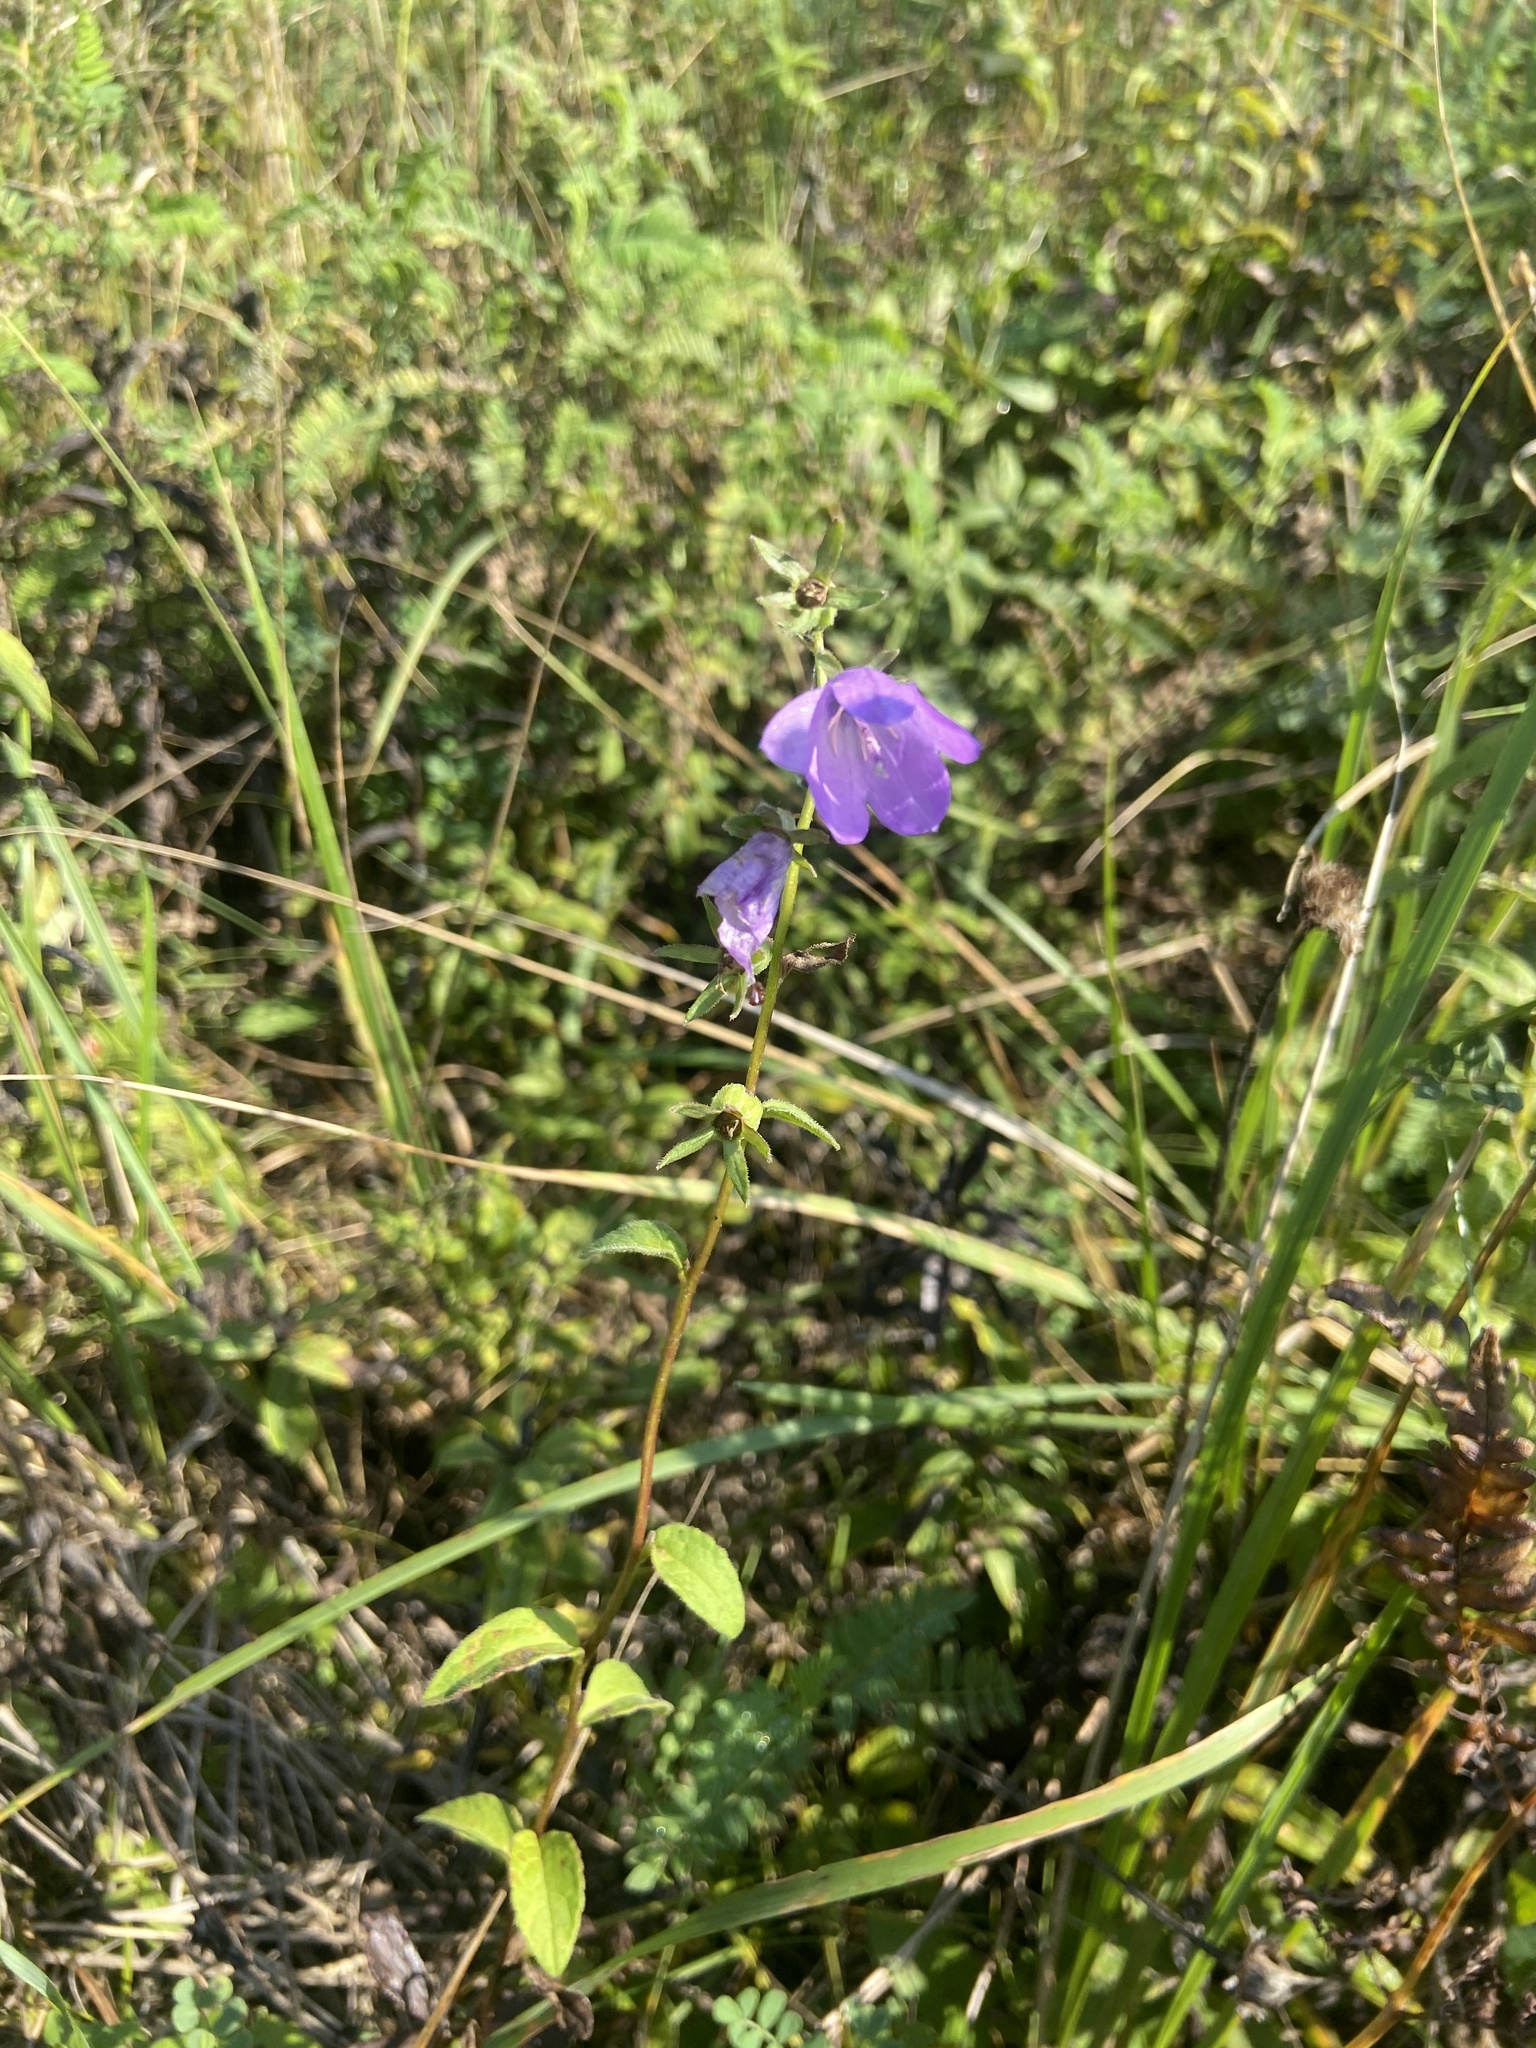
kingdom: Plantae
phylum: Tracheophyta
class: Magnoliopsida
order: Asterales
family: Campanulaceae
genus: Campanula
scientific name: Campanula rapunculoides
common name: Creeping bellflower
